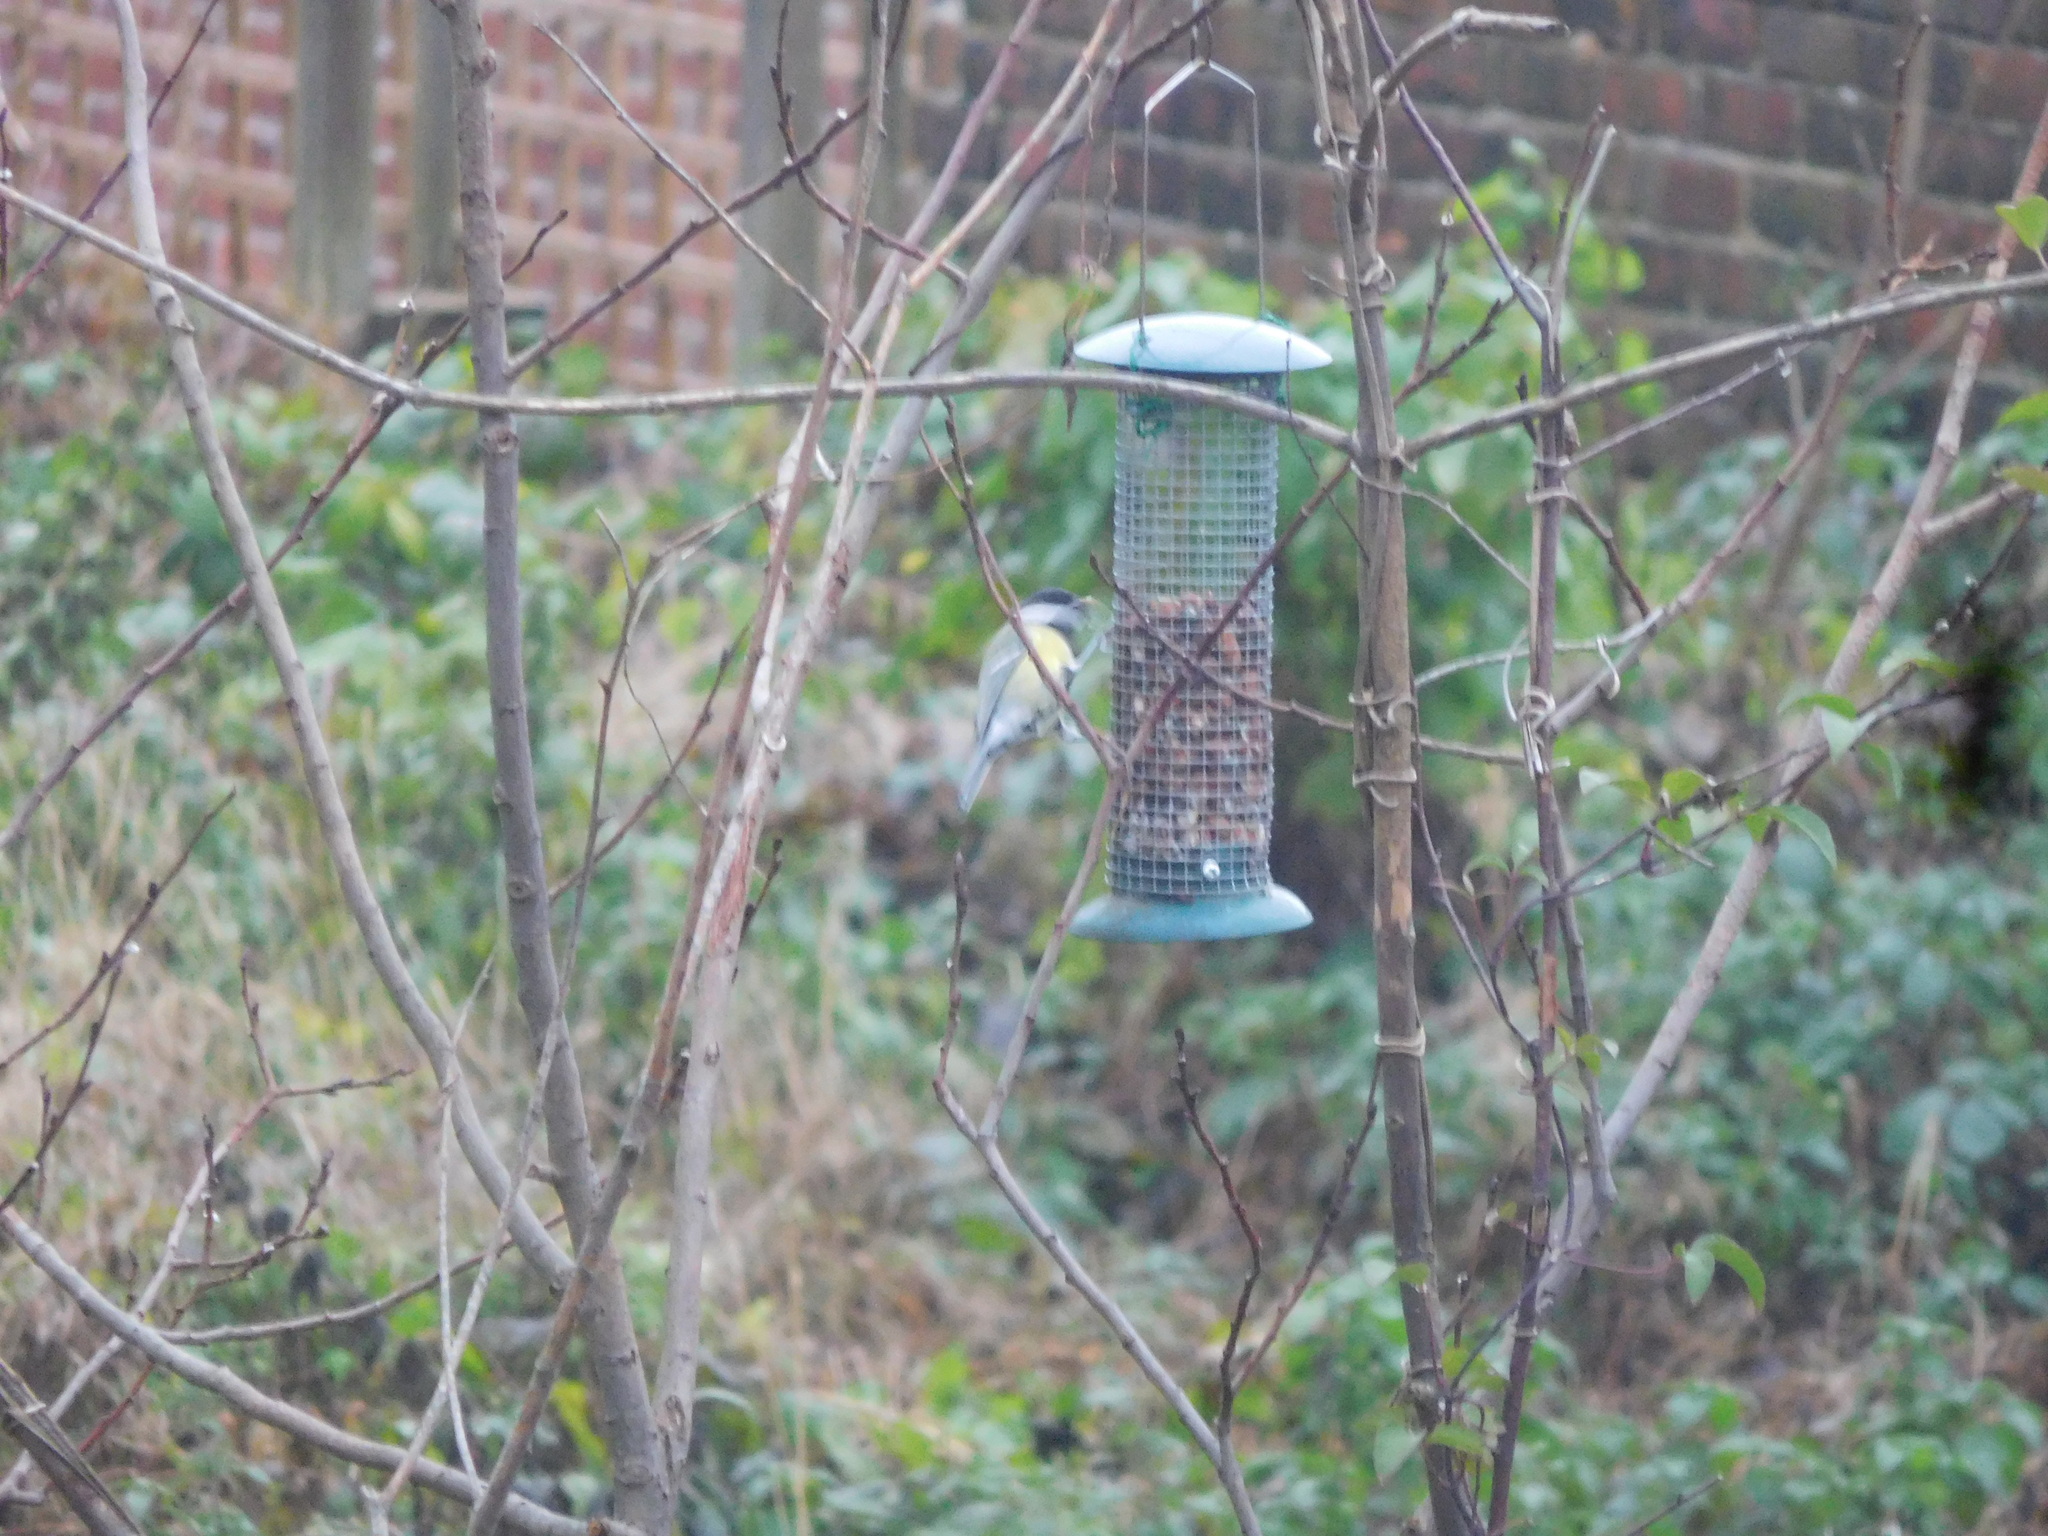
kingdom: Animalia
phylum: Chordata
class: Aves
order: Passeriformes
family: Paridae
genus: Parus
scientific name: Parus major
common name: Great tit
